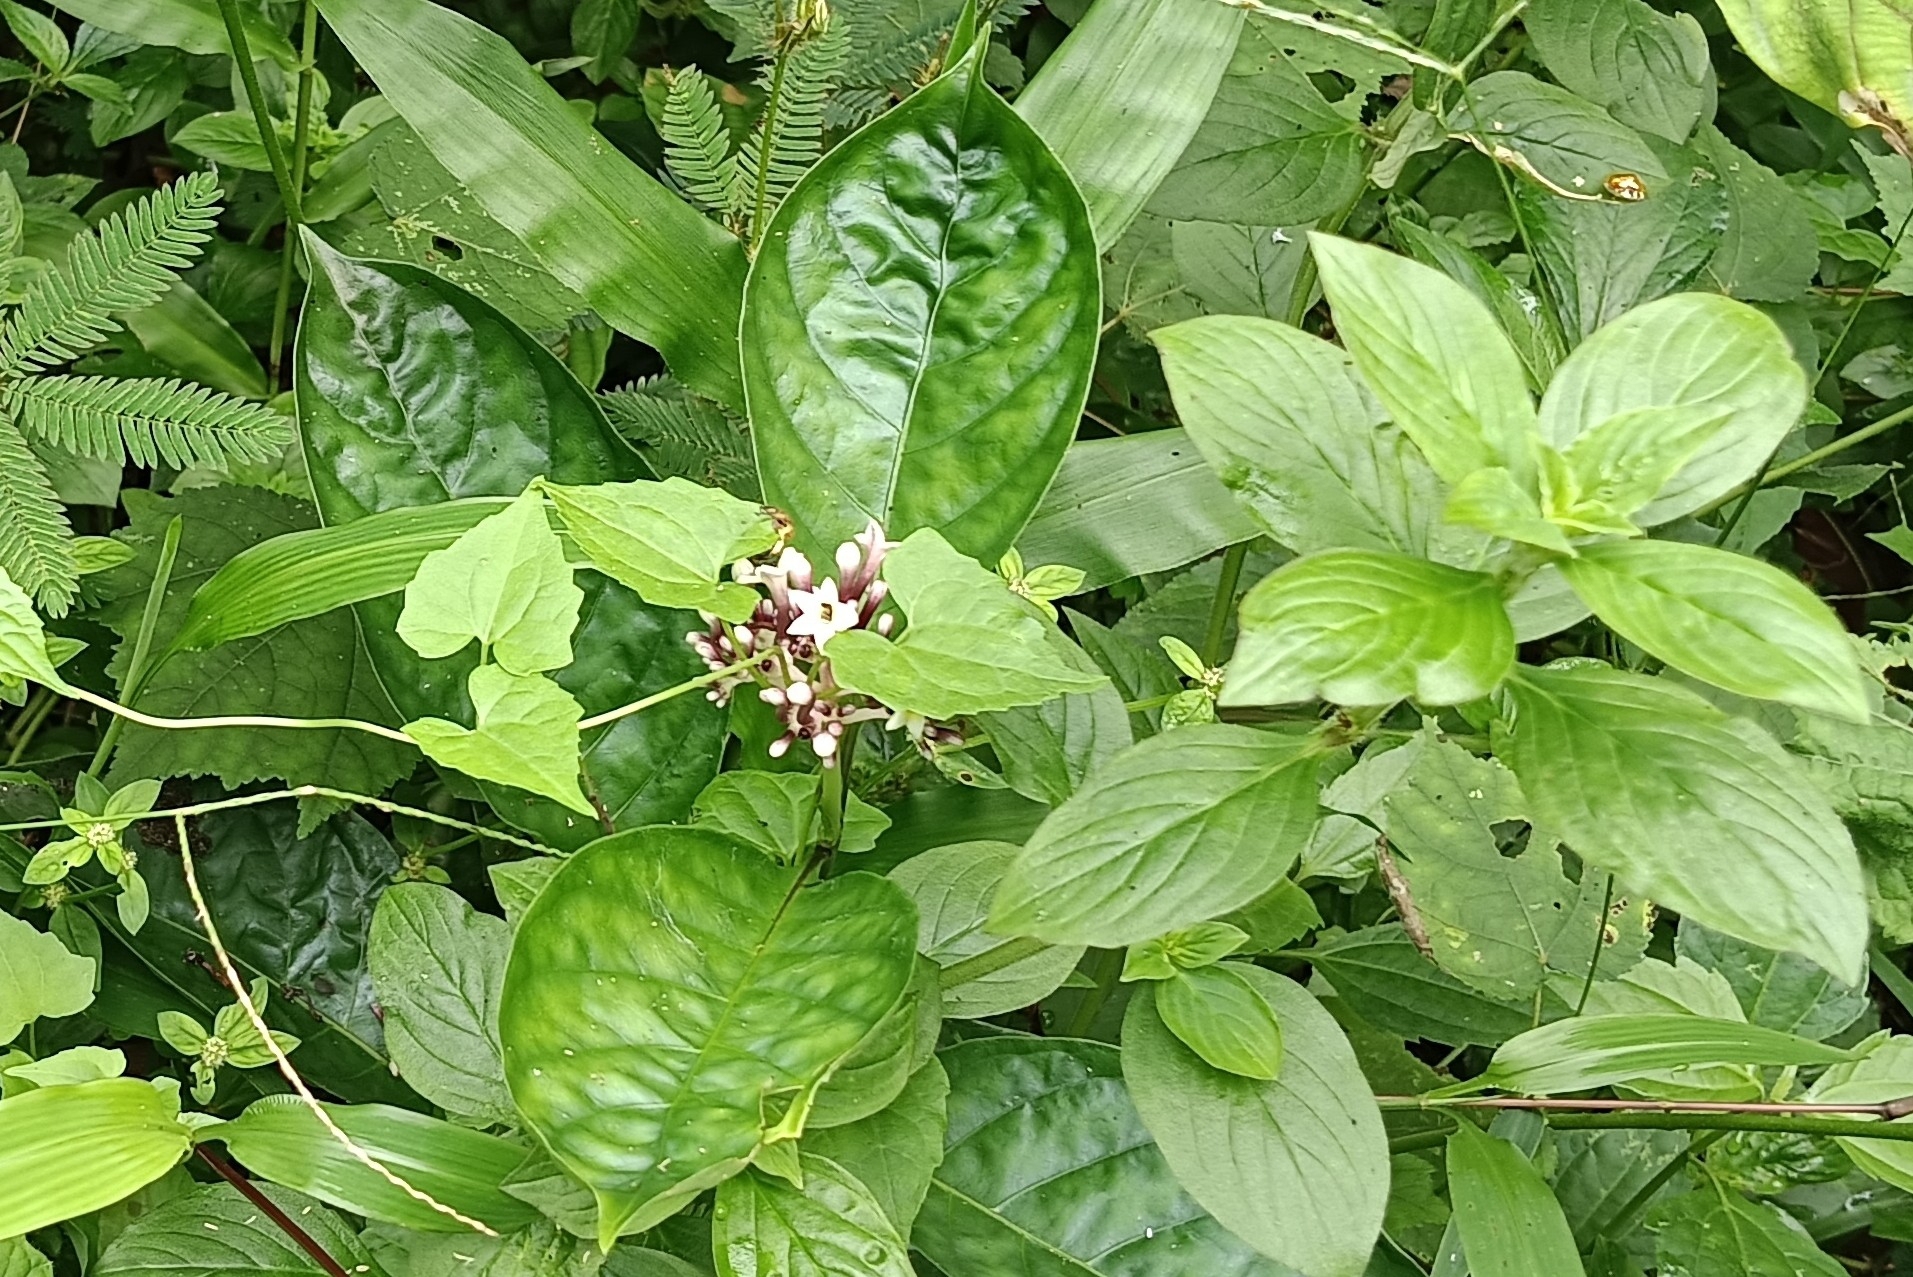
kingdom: Plantae
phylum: Tracheophyta
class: Magnoliopsida
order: Gentianales
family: Rubiaceae
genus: Chassalia
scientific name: Chassalia curviflora
